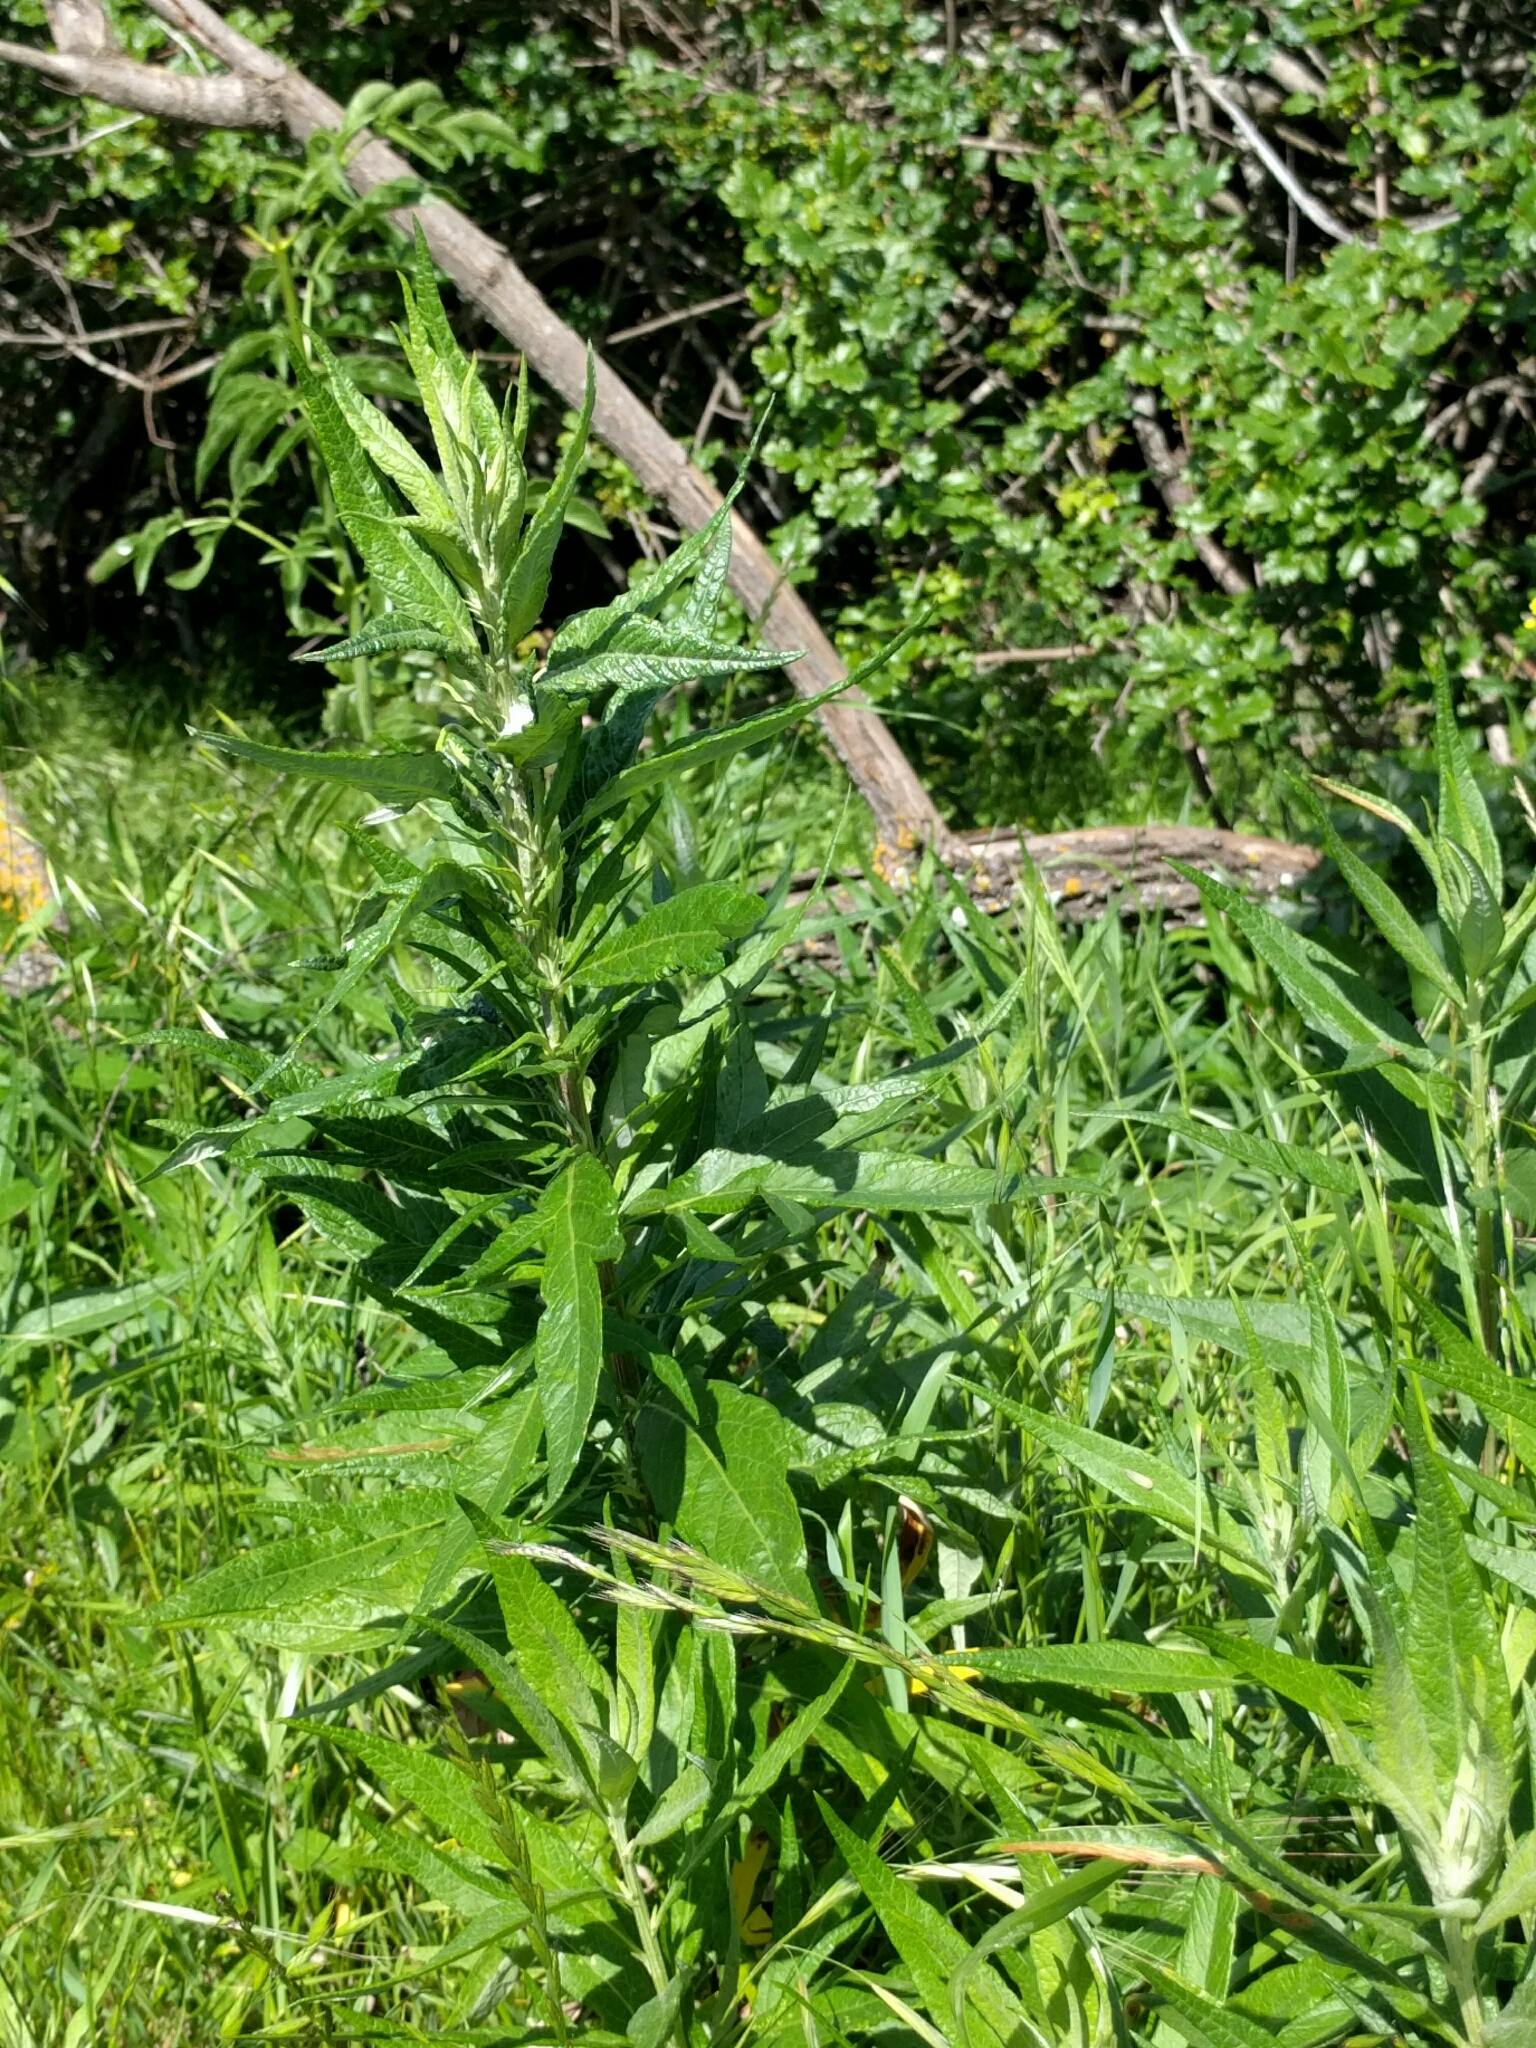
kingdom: Plantae
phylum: Tracheophyta
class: Magnoliopsida
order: Asterales
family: Asteraceae
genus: Artemisia
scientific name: Artemisia douglasiana
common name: Northwest mugwort
